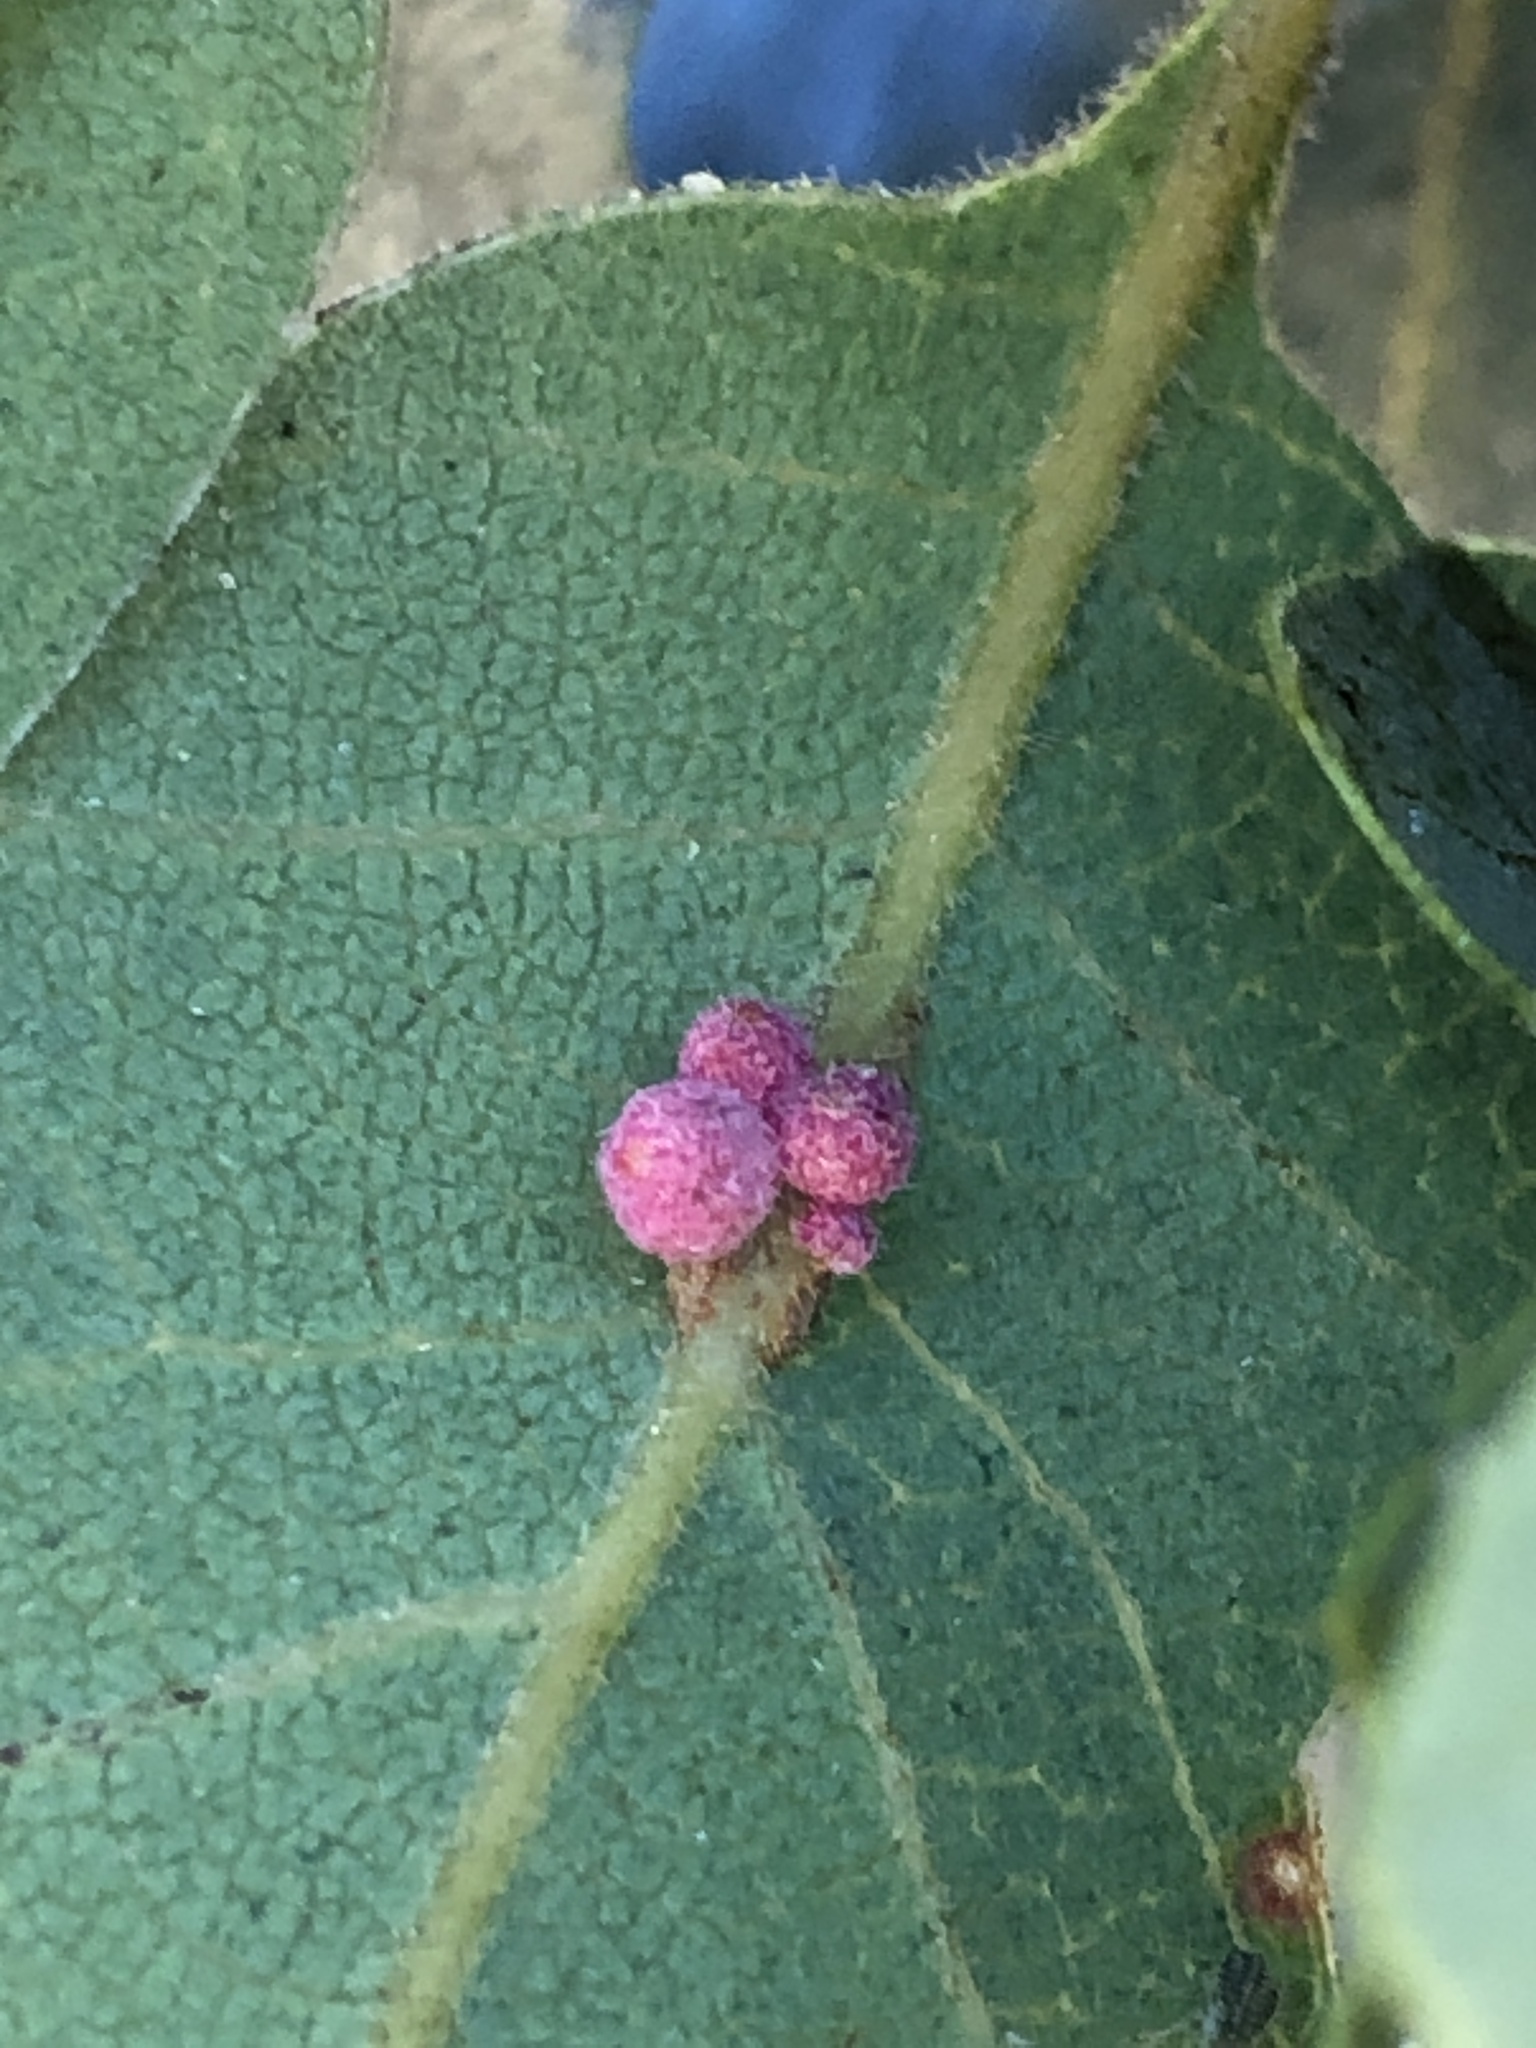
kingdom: Animalia
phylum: Arthropoda
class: Insecta
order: Hymenoptera
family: Cynipidae
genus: Andricus
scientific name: Andricus
